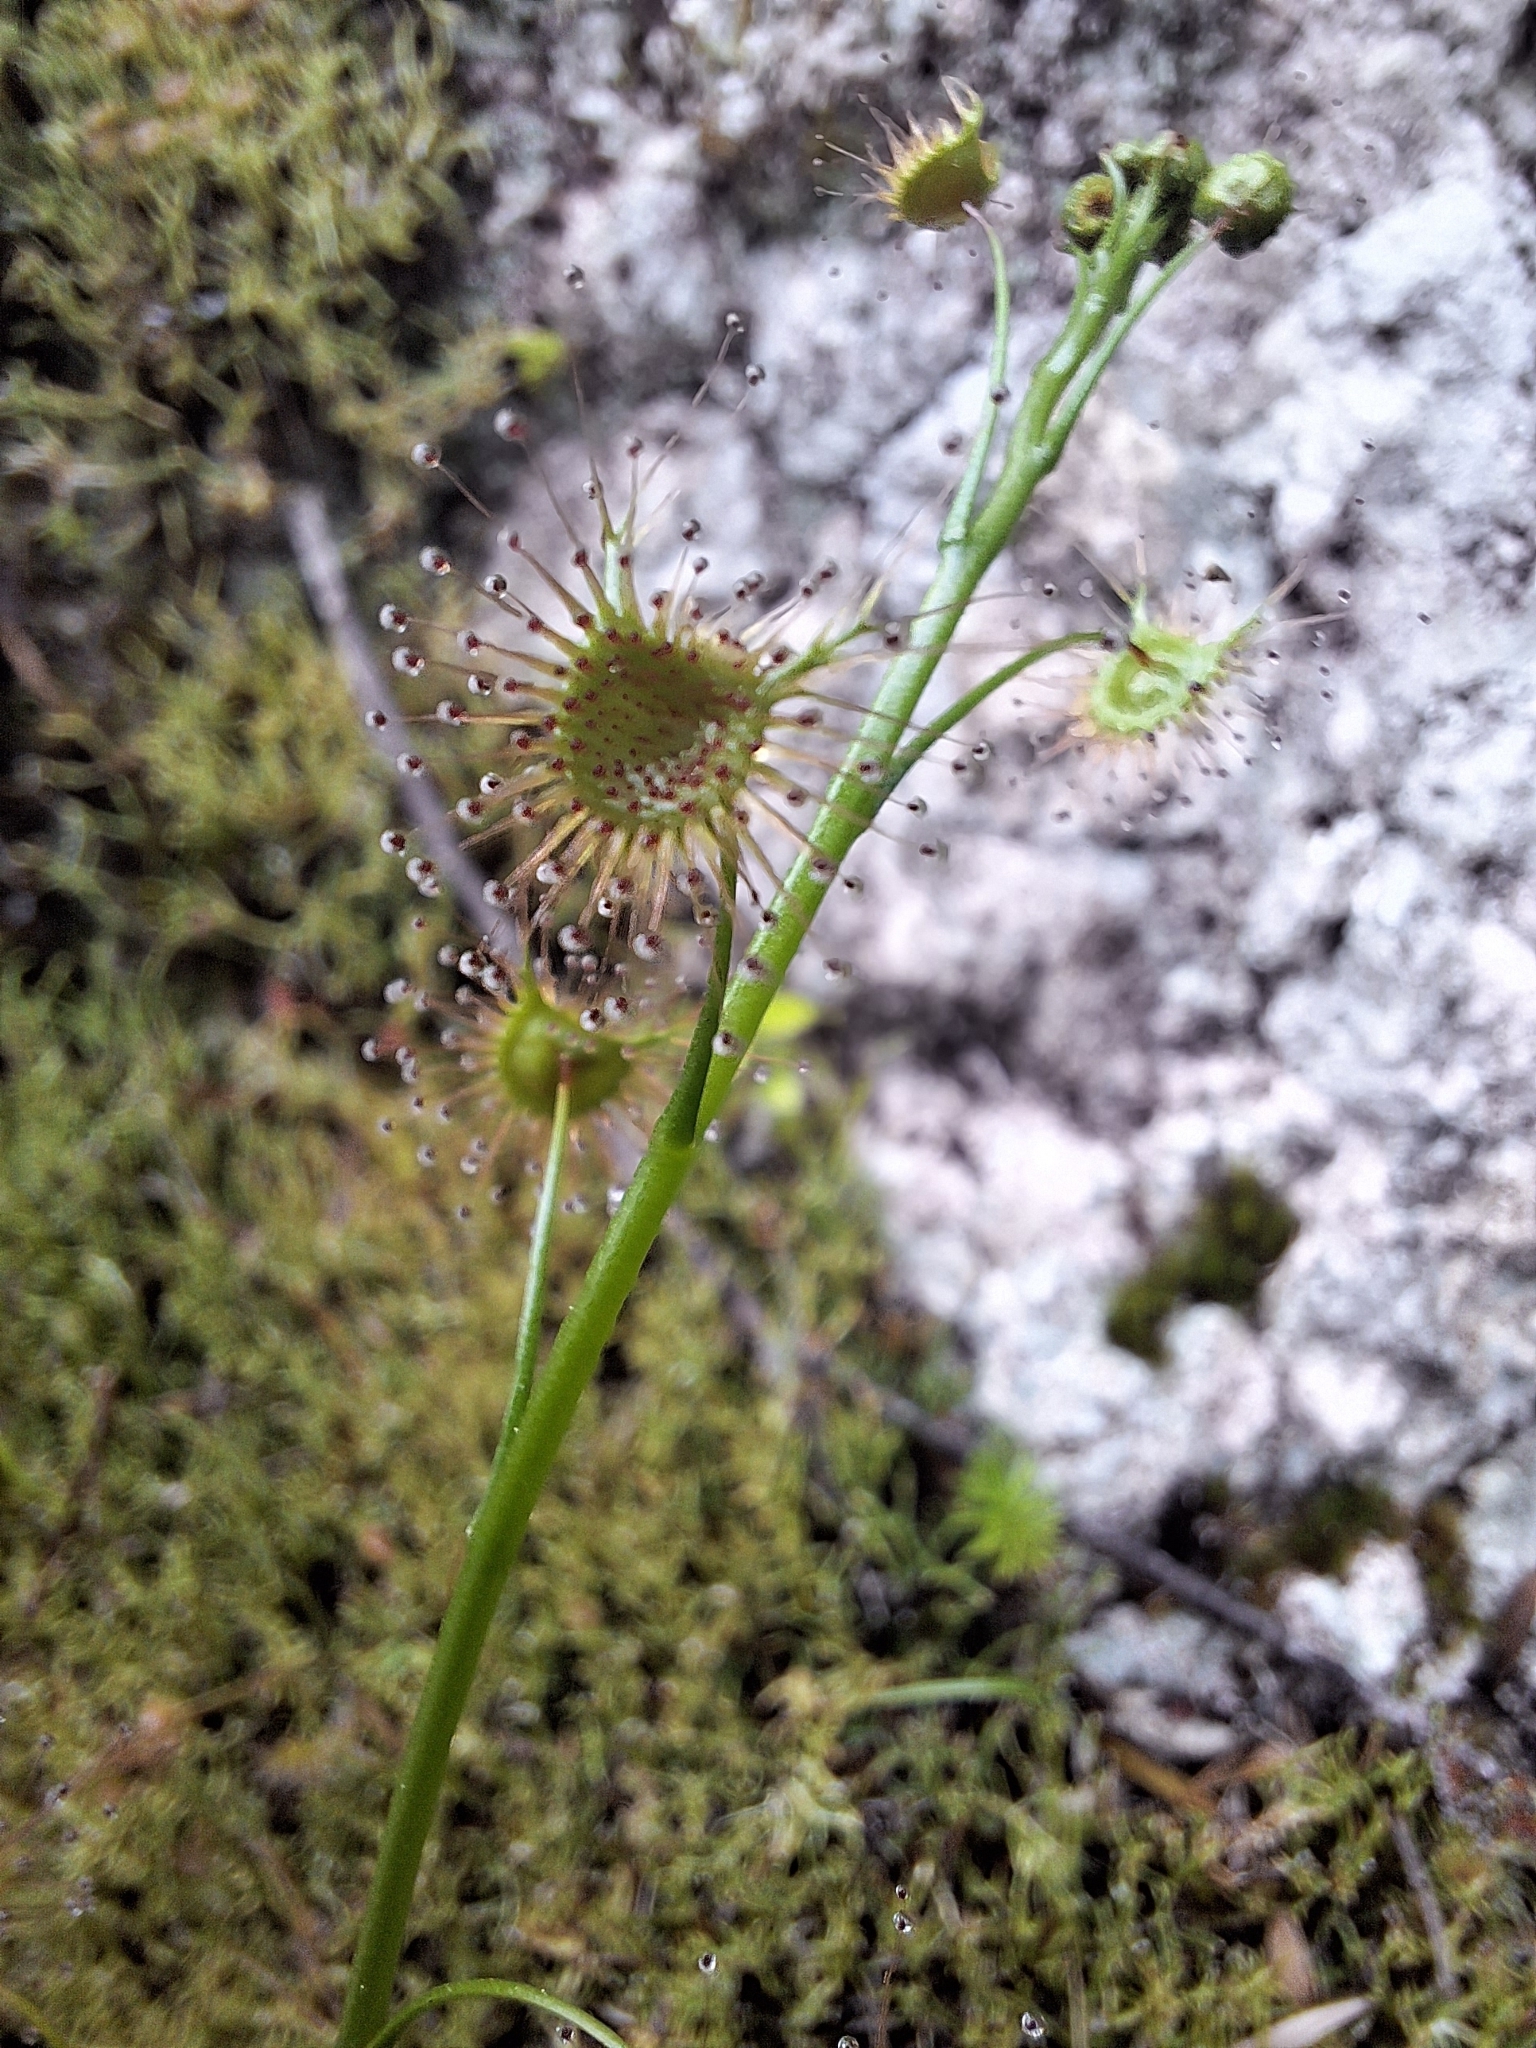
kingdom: Plantae
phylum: Tracheophyta
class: Magnoliopsida
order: Caryophyllales
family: Droseraceae
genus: Drosera
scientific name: Drosera peltata
